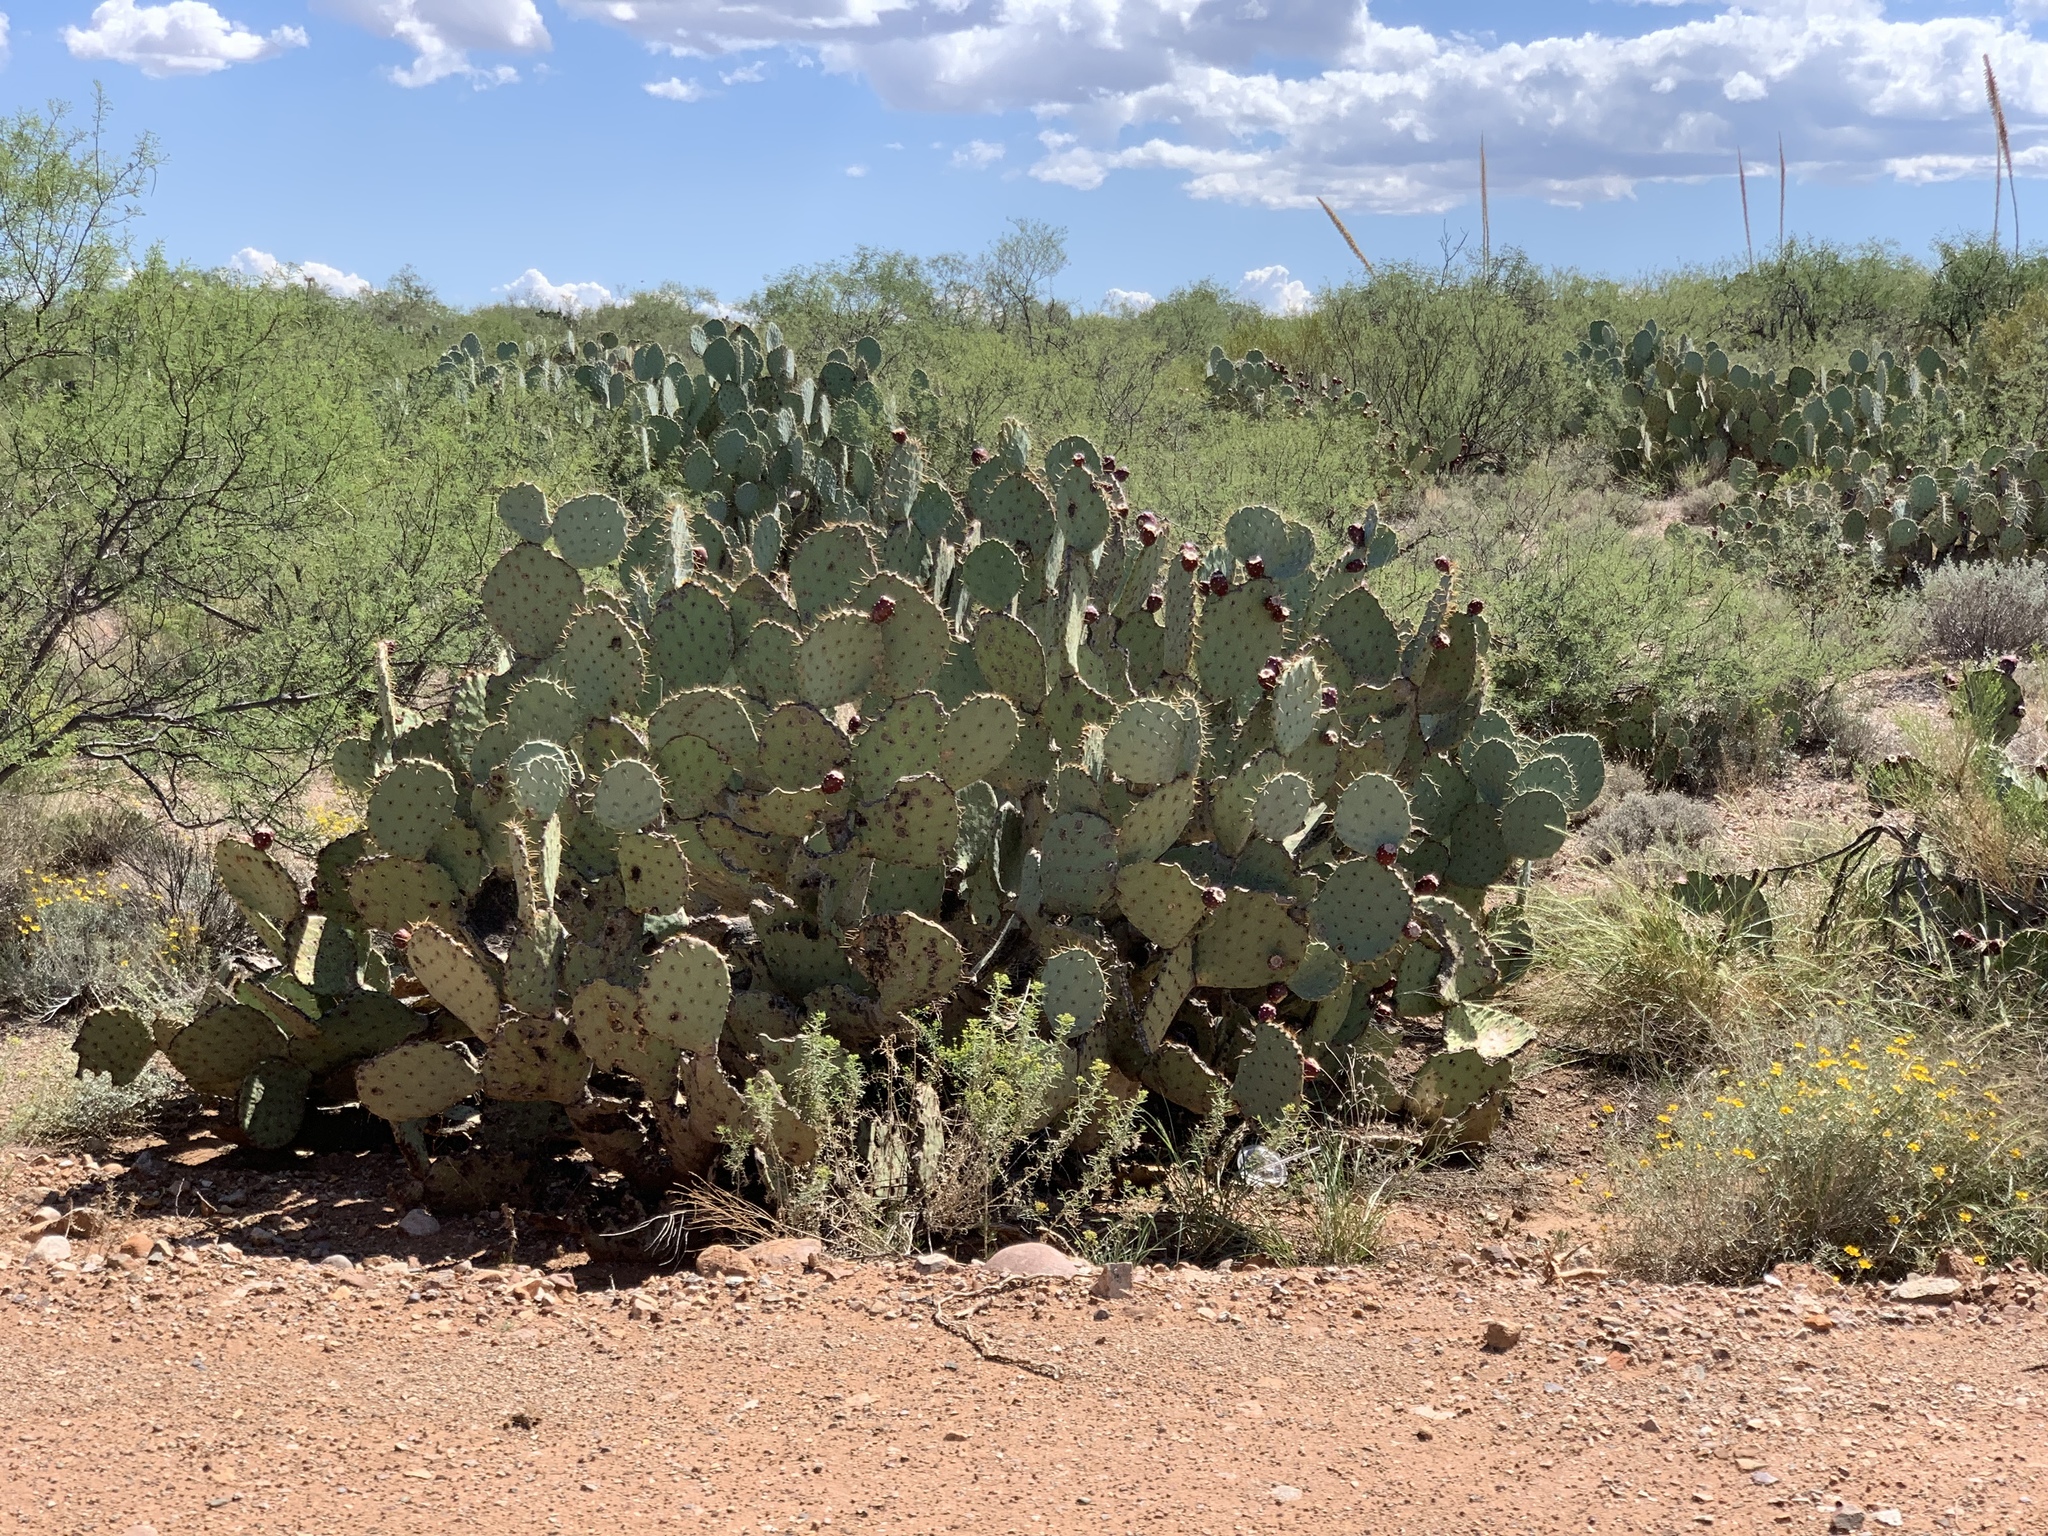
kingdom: Plantae
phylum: Tracheophyta
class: Magnoliopsida
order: Caryophyllales
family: Cactaceae
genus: Opuntia
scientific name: Opuntia engelmannii
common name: Cactus-apple
